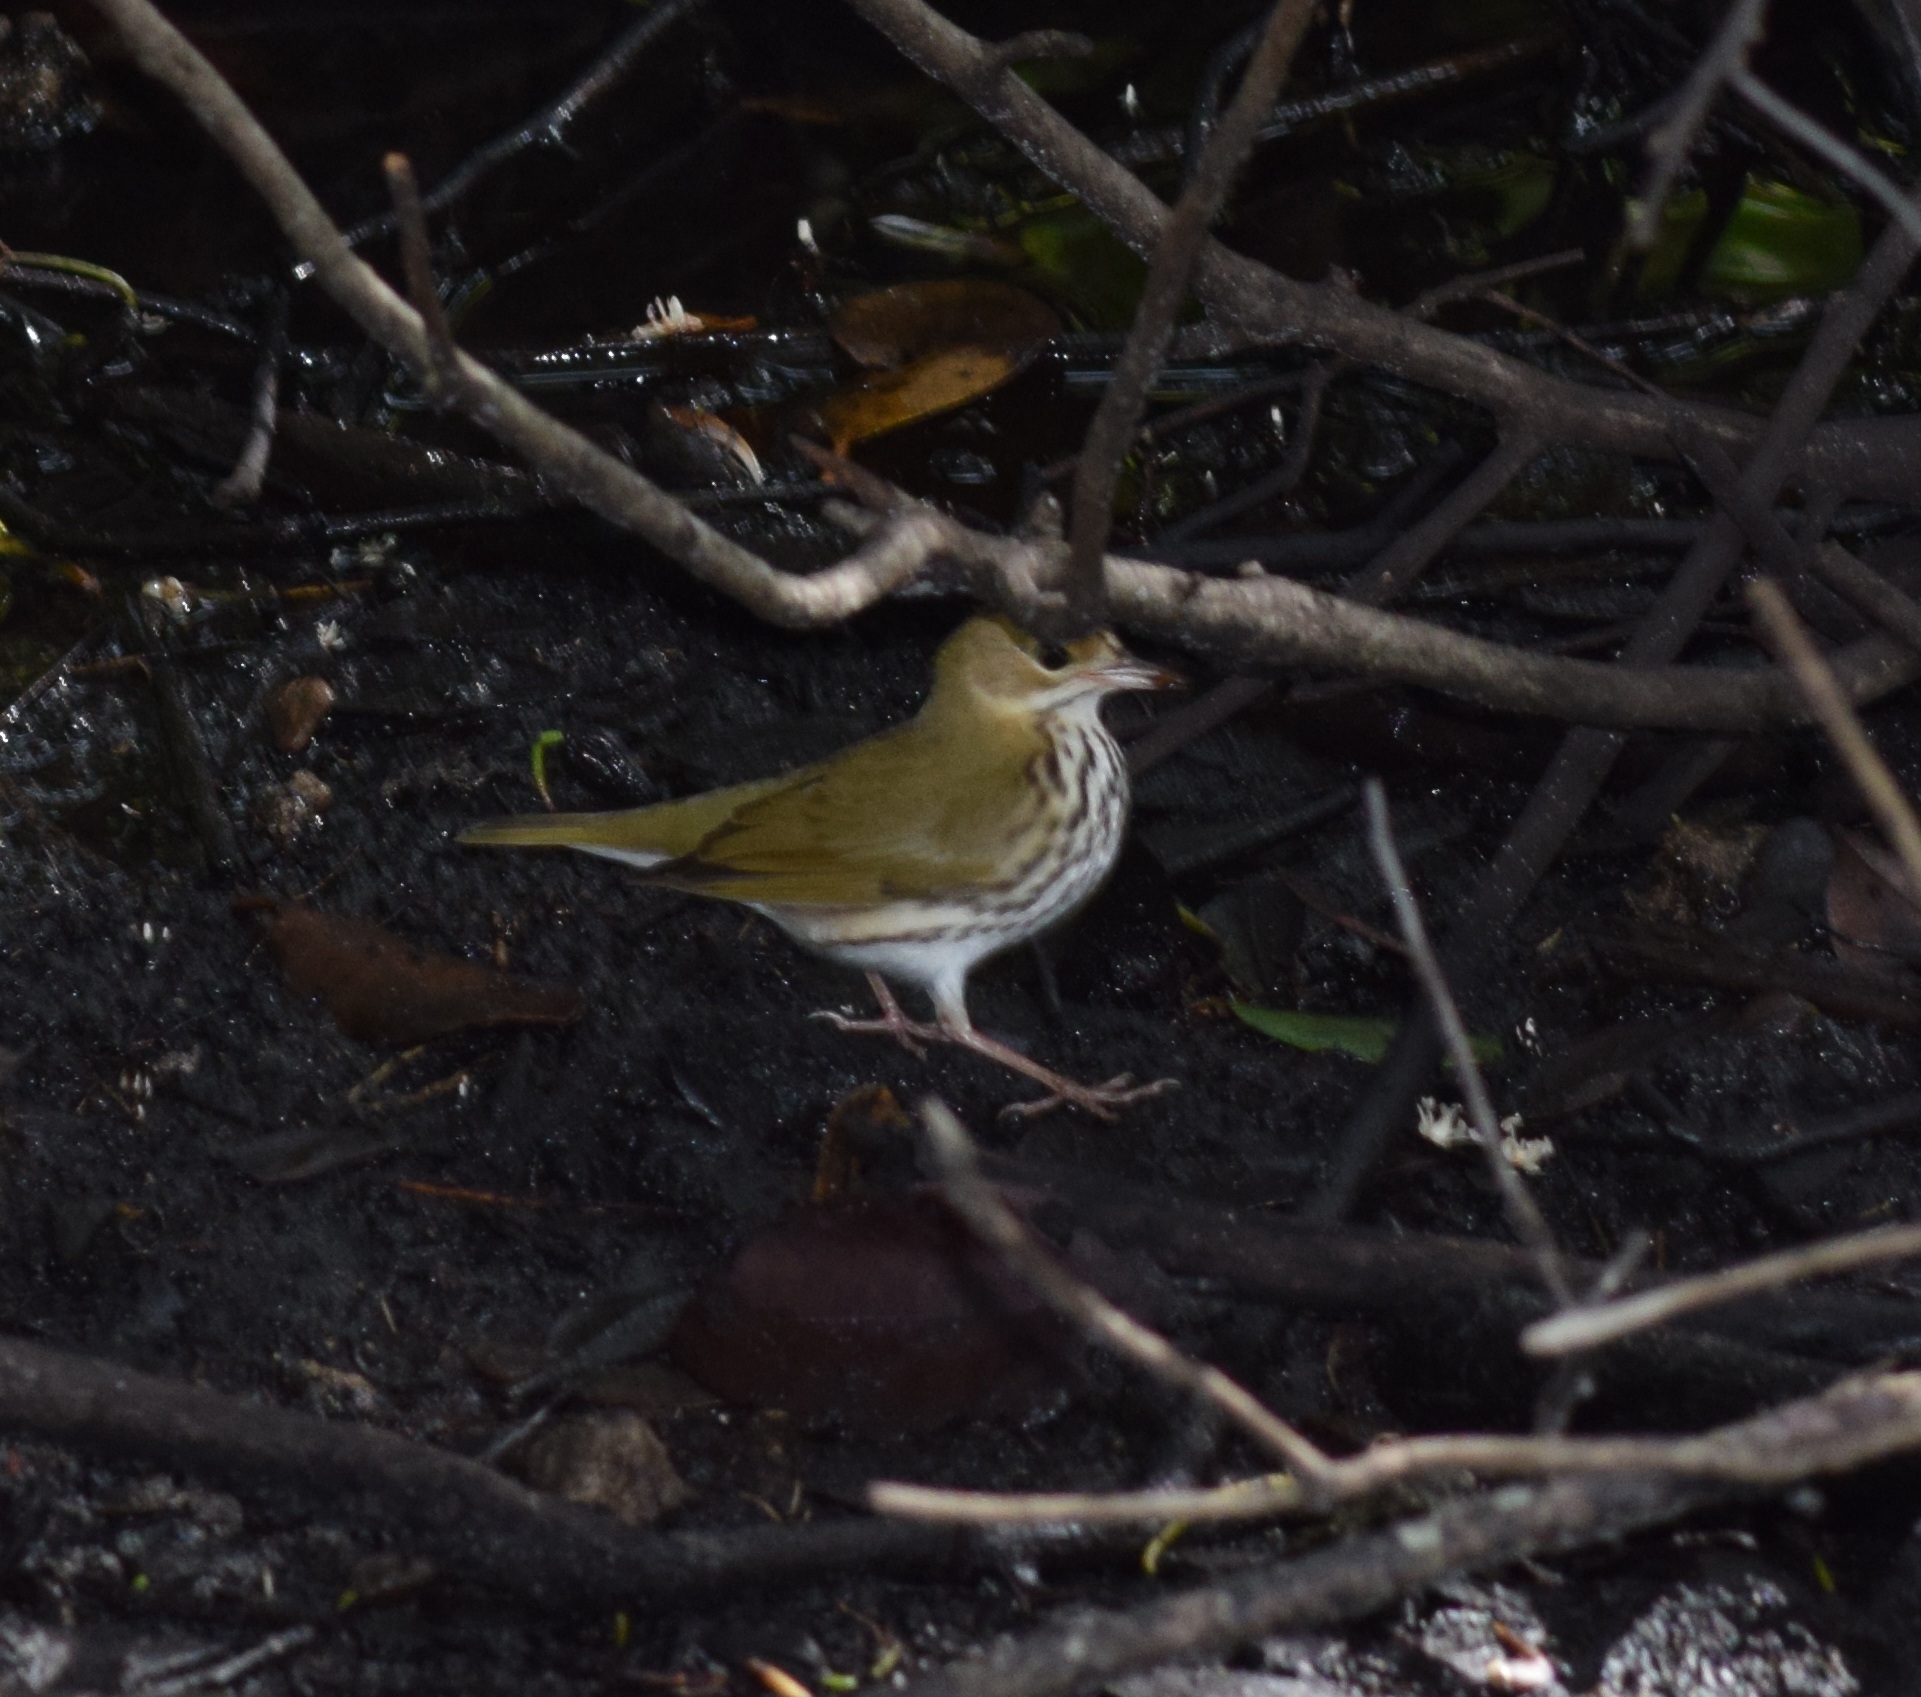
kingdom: Animalia
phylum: Chordata
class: Aves
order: Passeriformes
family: Parulidae
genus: Seiurus
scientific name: Seiurus aurocapilla
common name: Ovenbird
